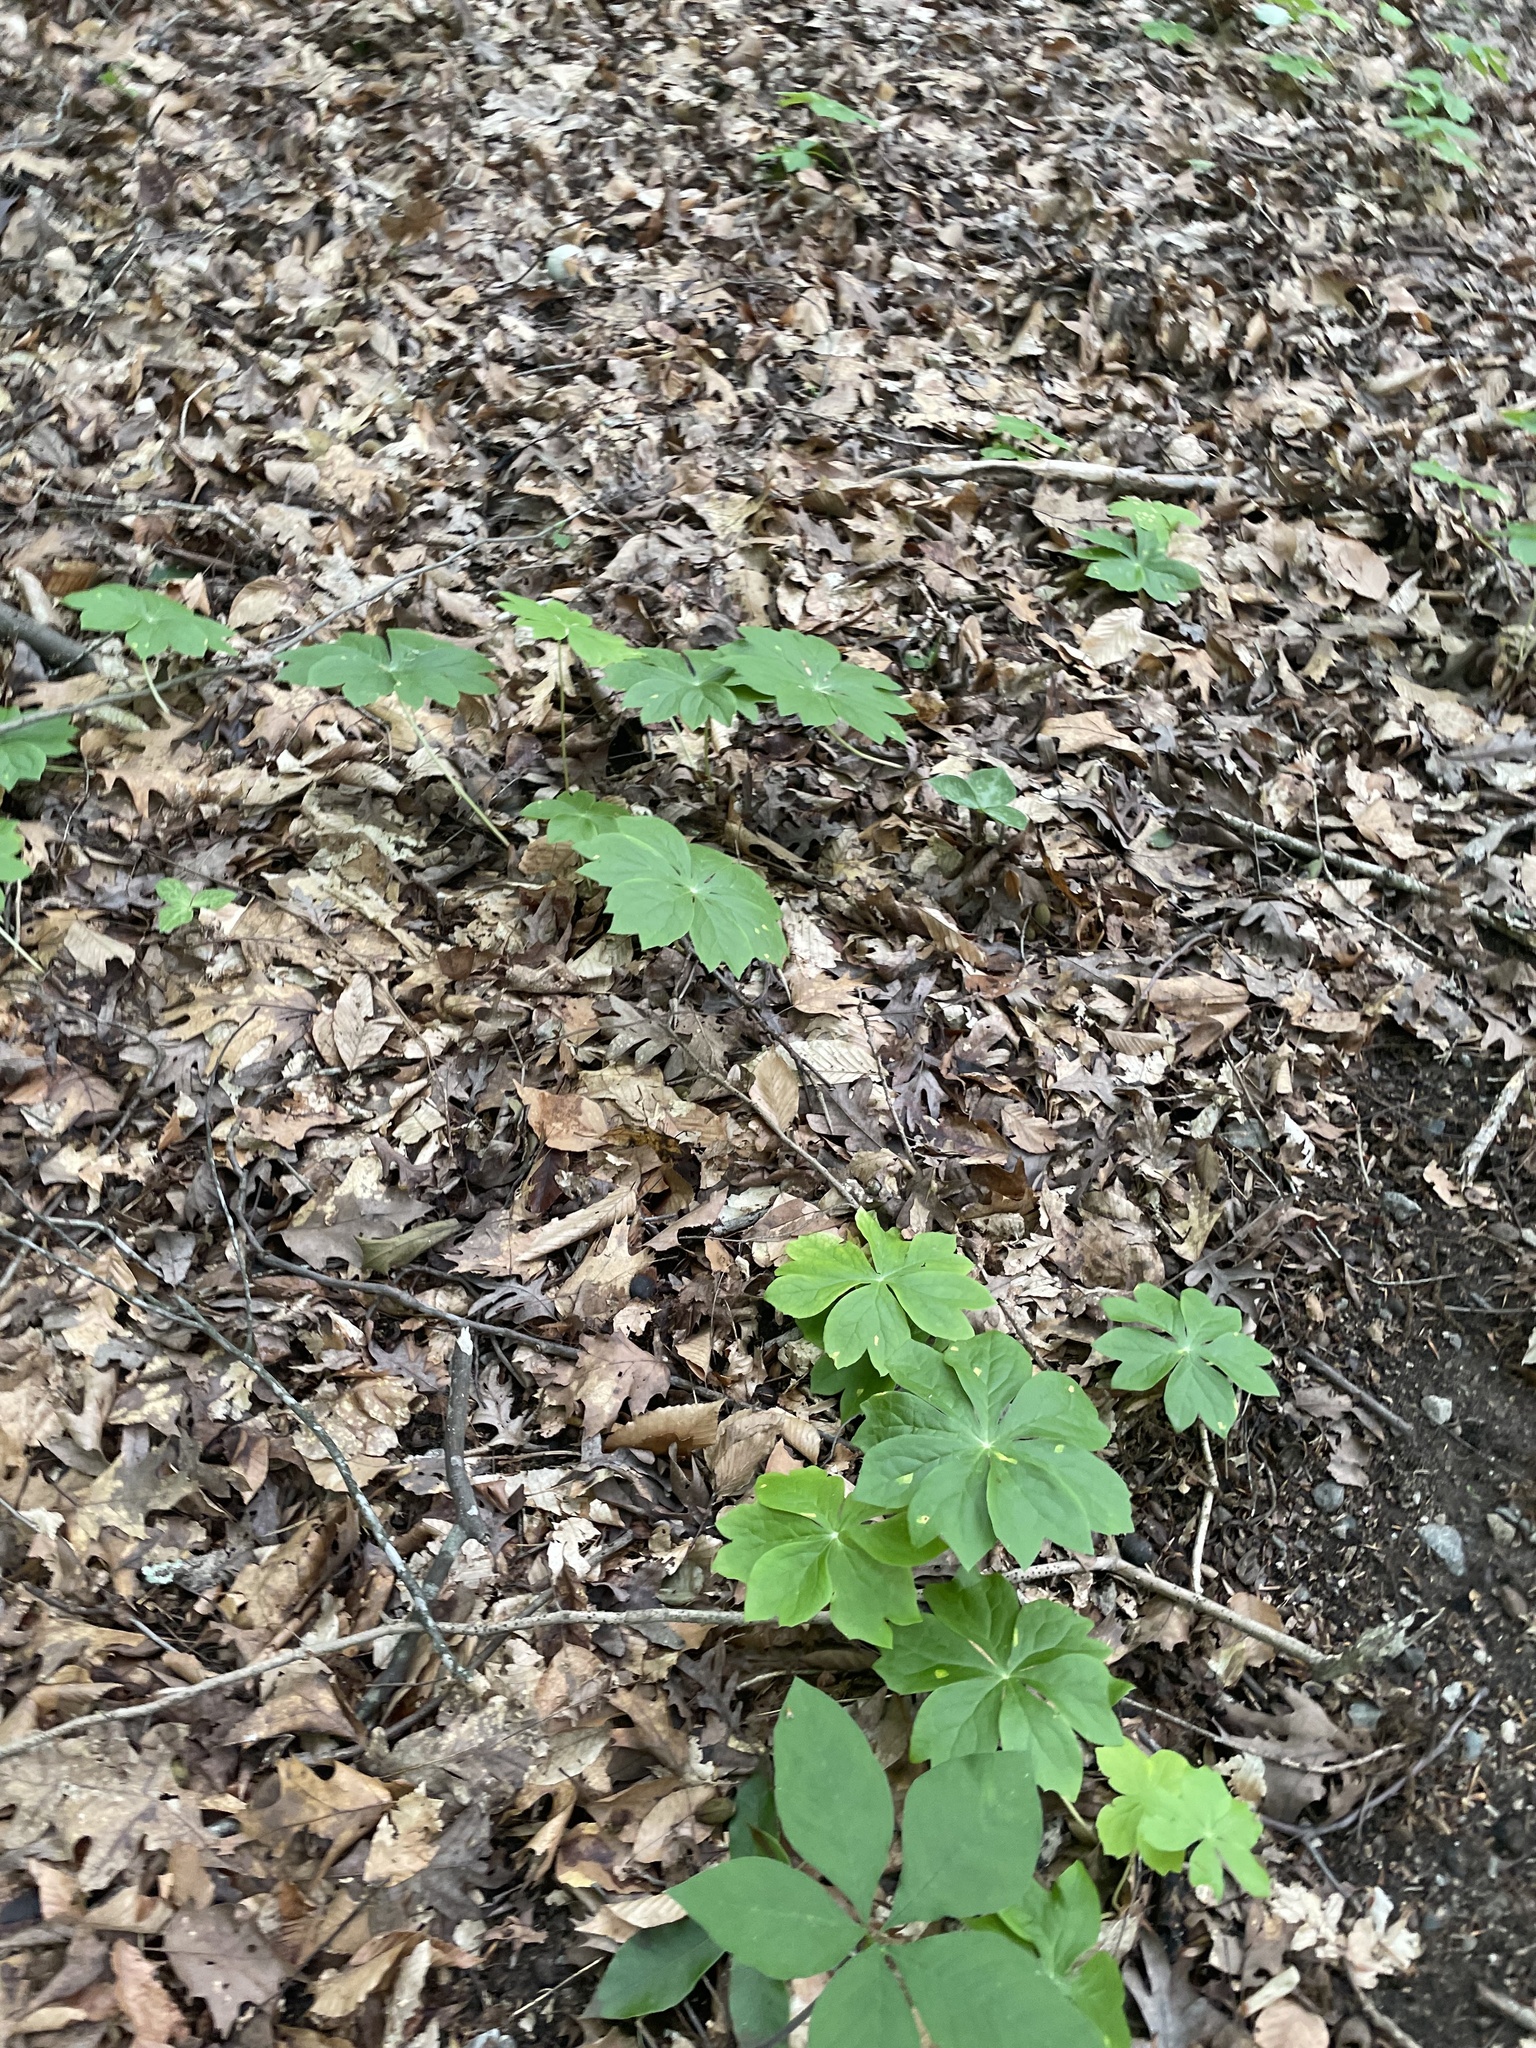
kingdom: Plantae
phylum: Tracheophyta
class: Magnoliopsida
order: Ranunculales
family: Berberidaceae
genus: Podophyllum
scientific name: Podophyllum peltatum
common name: Wild mandrake
